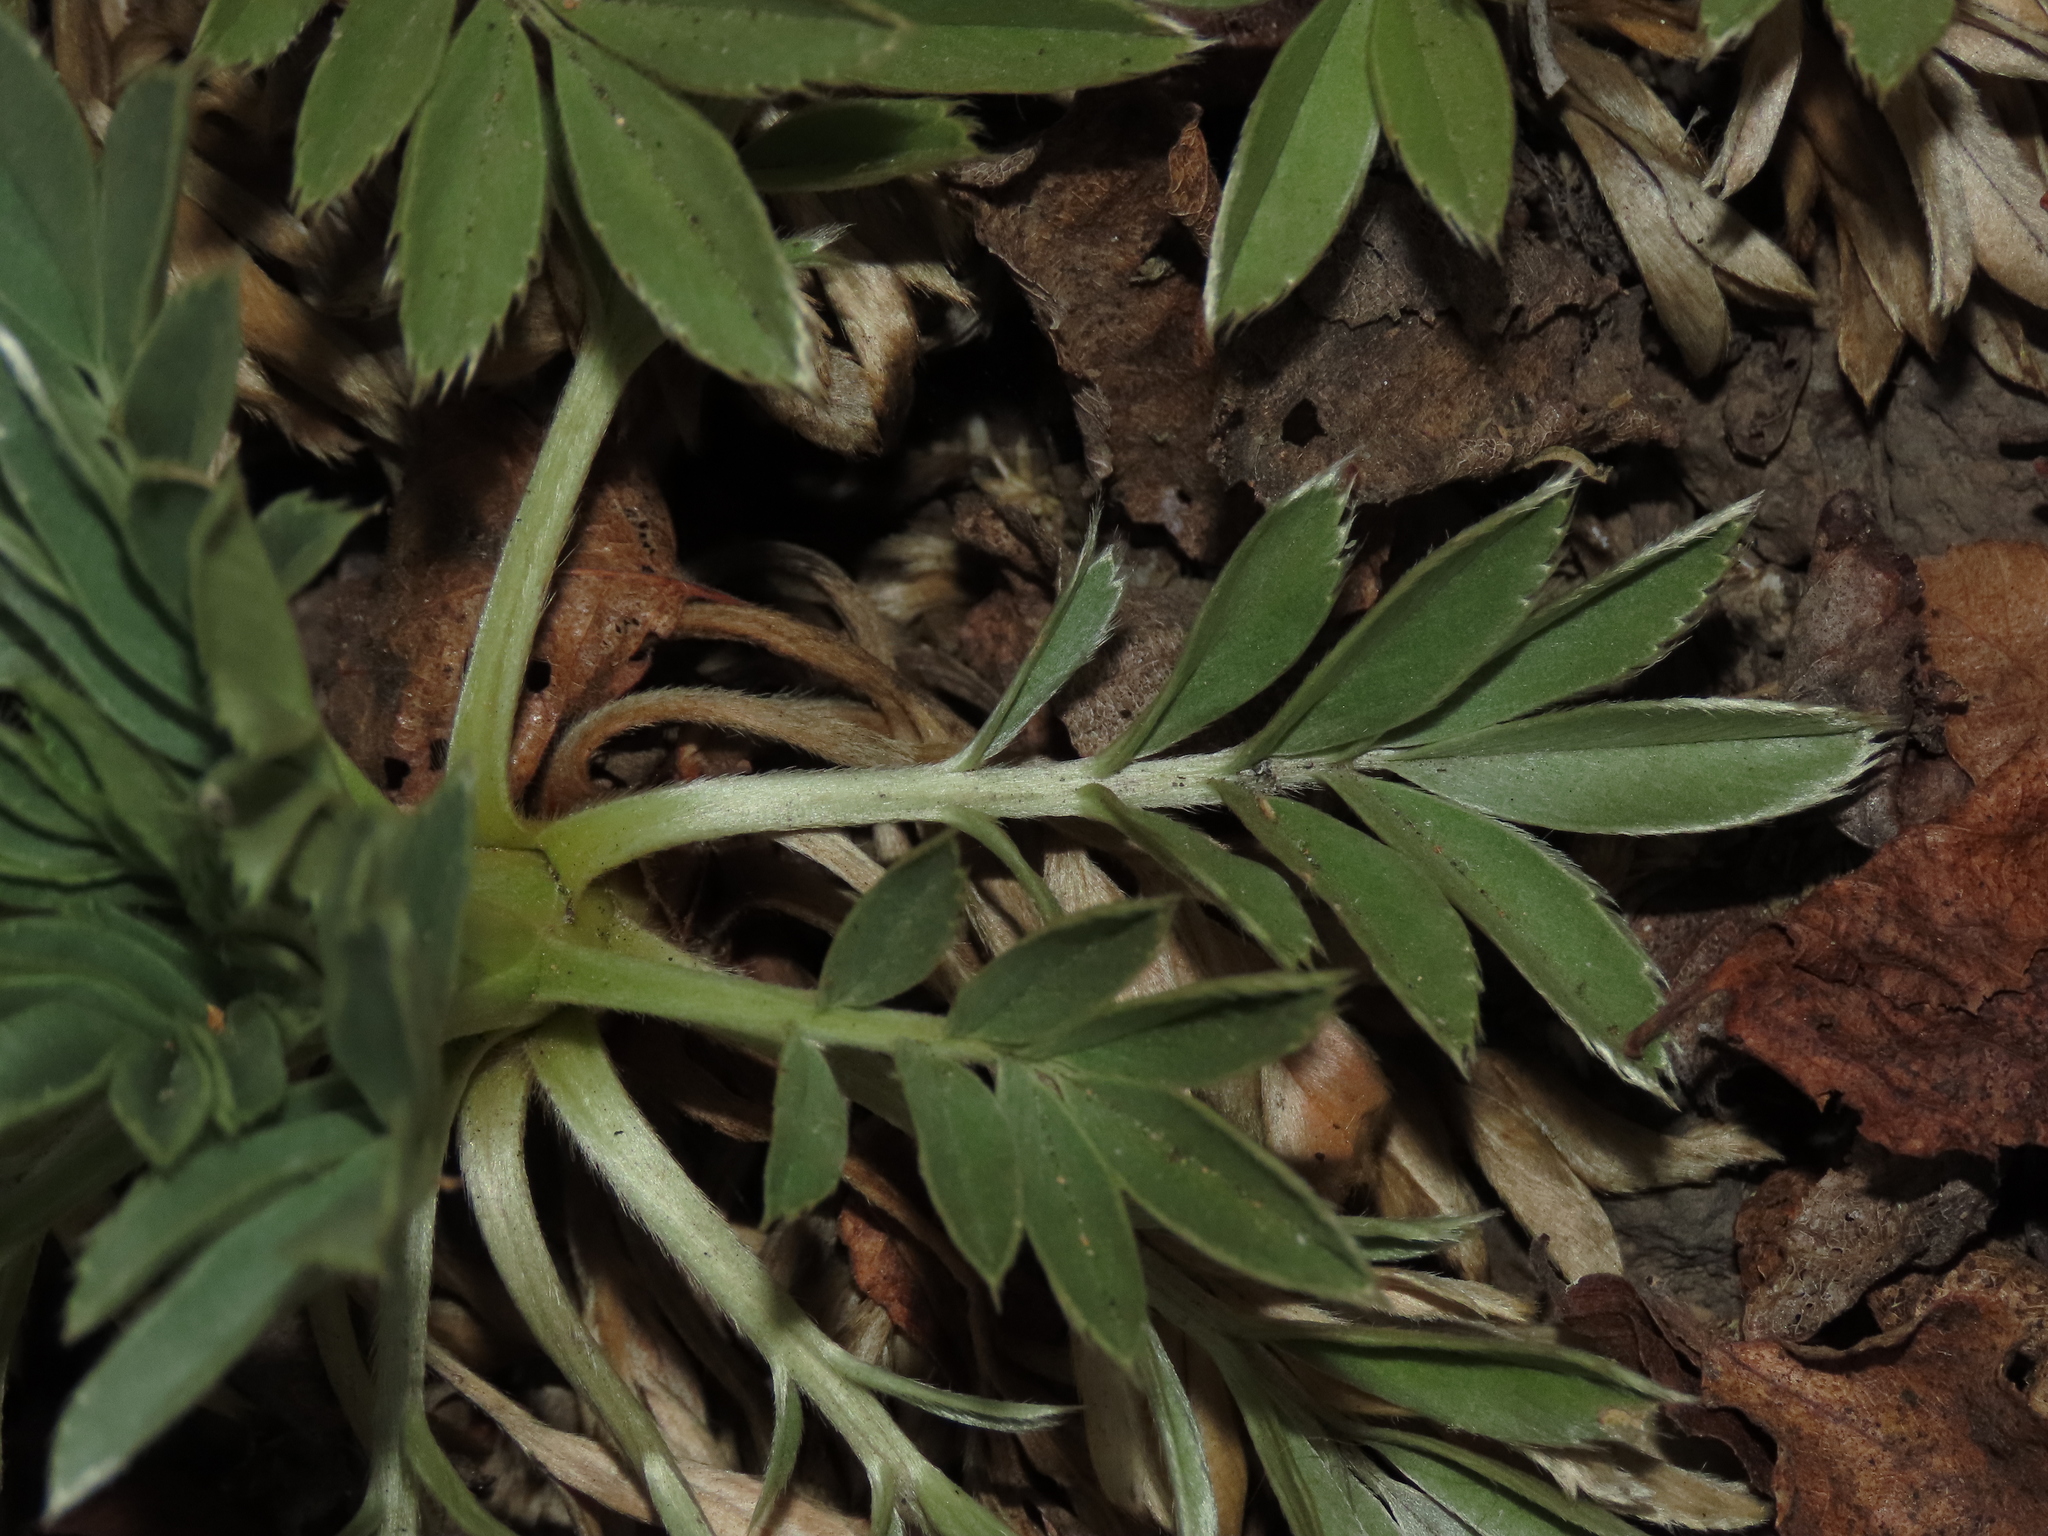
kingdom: Plantae
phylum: Tracheophyta
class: Magnoliopsida
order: Rosales
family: Rosaceae
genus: Acaena
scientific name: Acaena splendens
